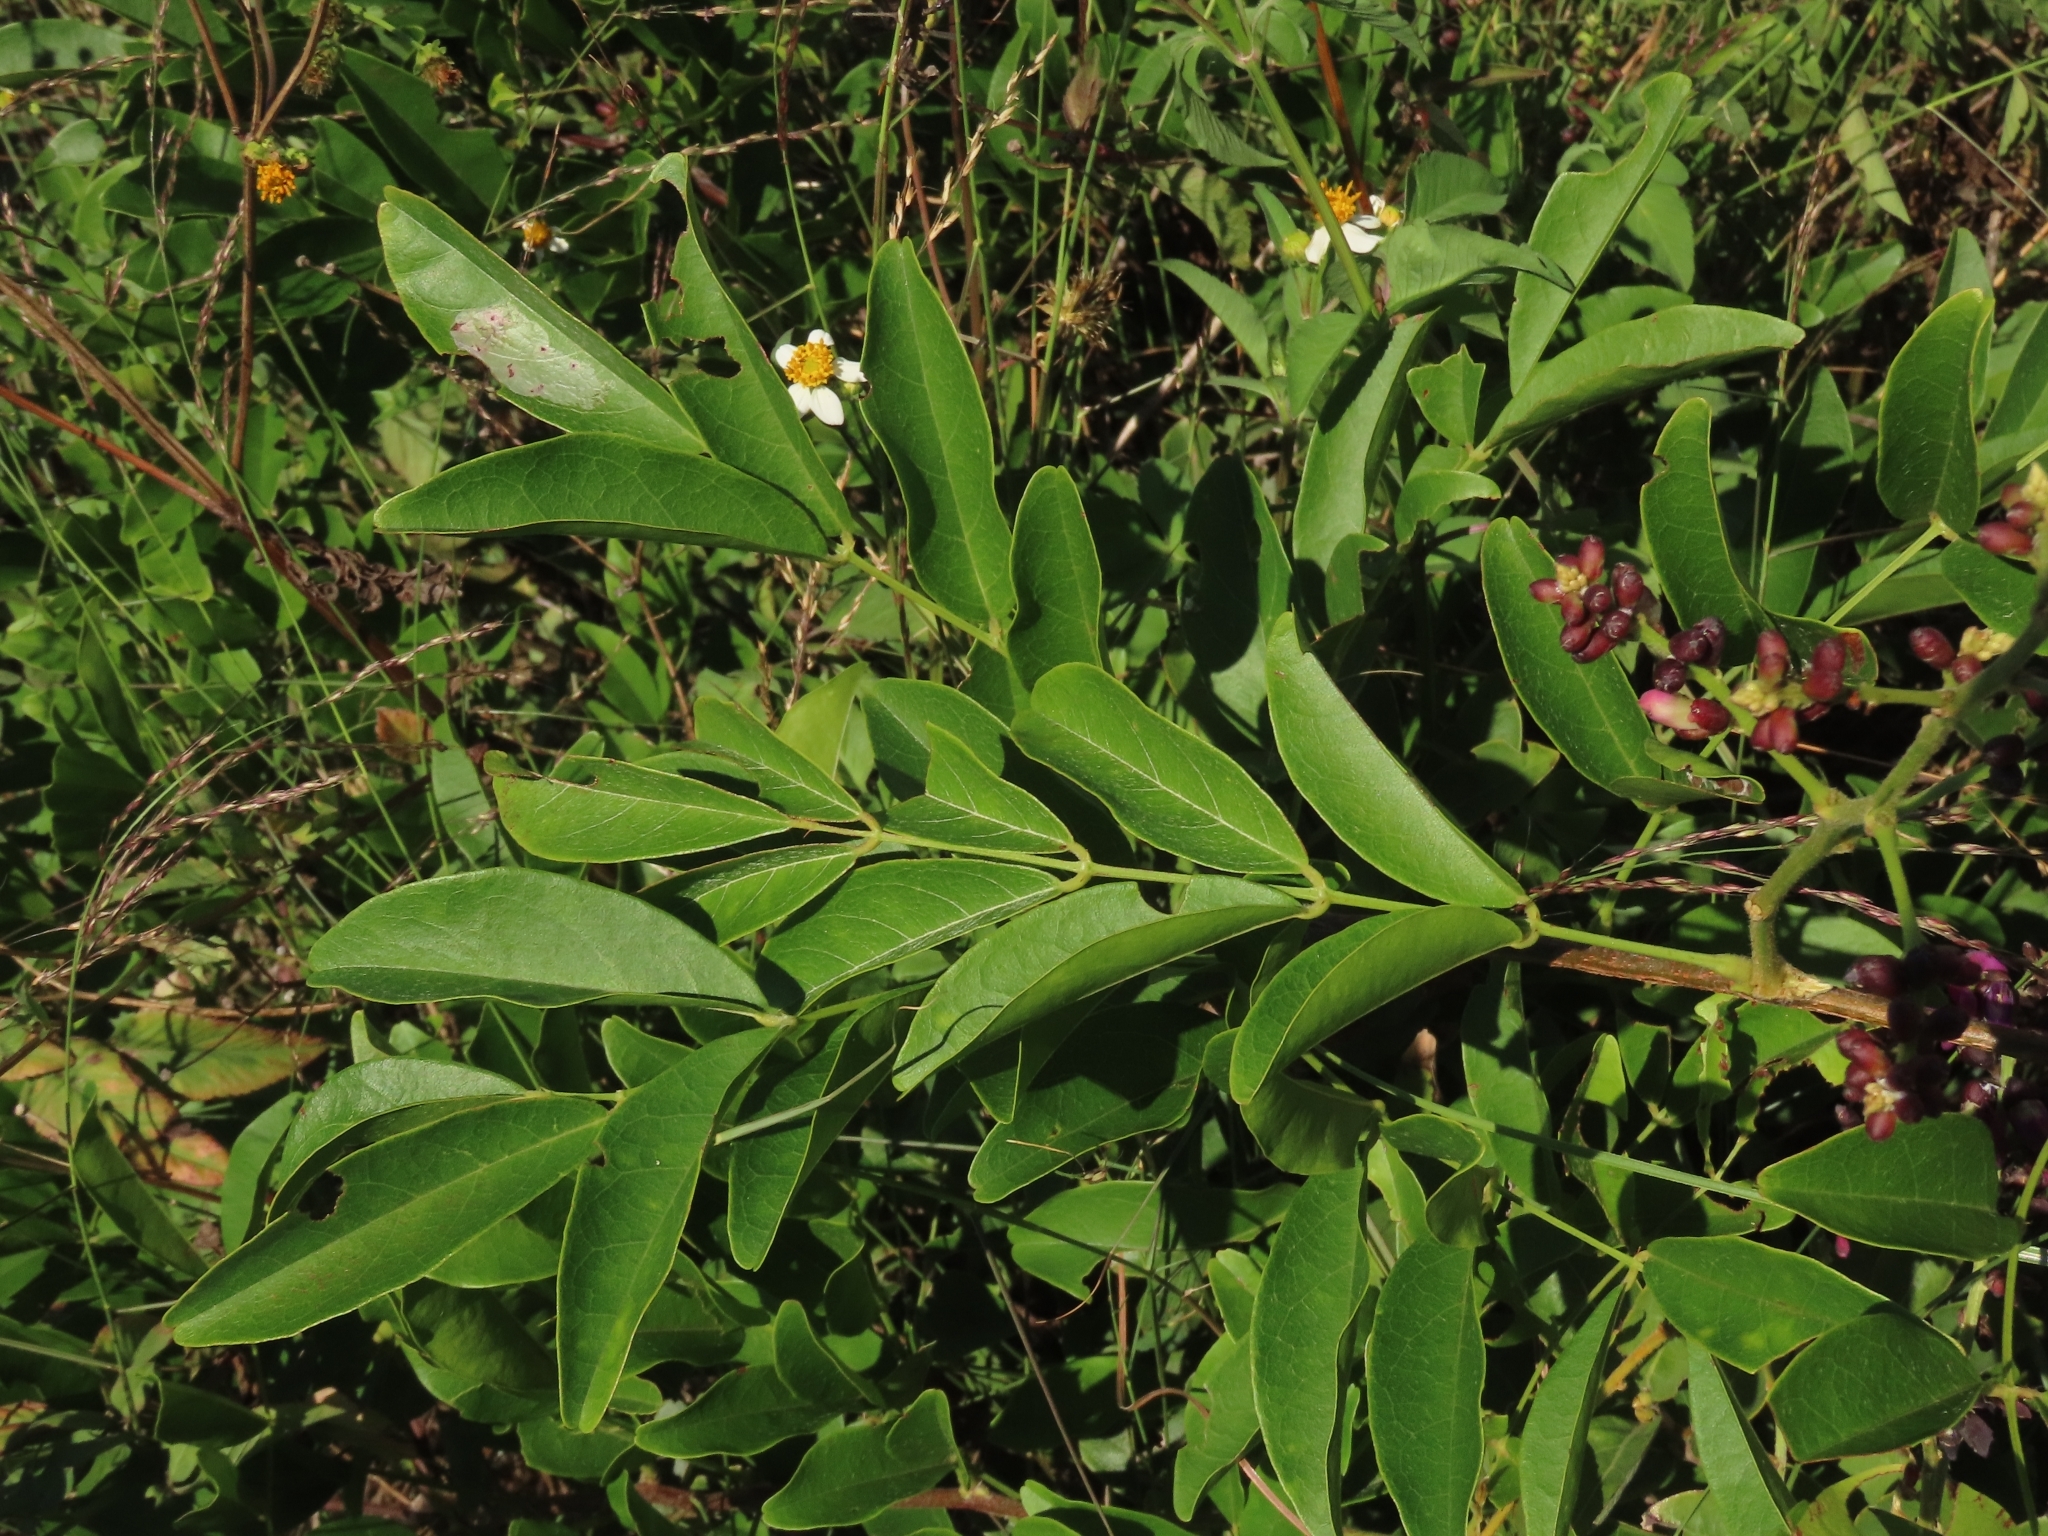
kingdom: Plantae
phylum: Tracheophyta
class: Magnoliopsida
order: Fabales
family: Fabaceae
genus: Wisteriopsis
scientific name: Wisteriopsis reticulata
